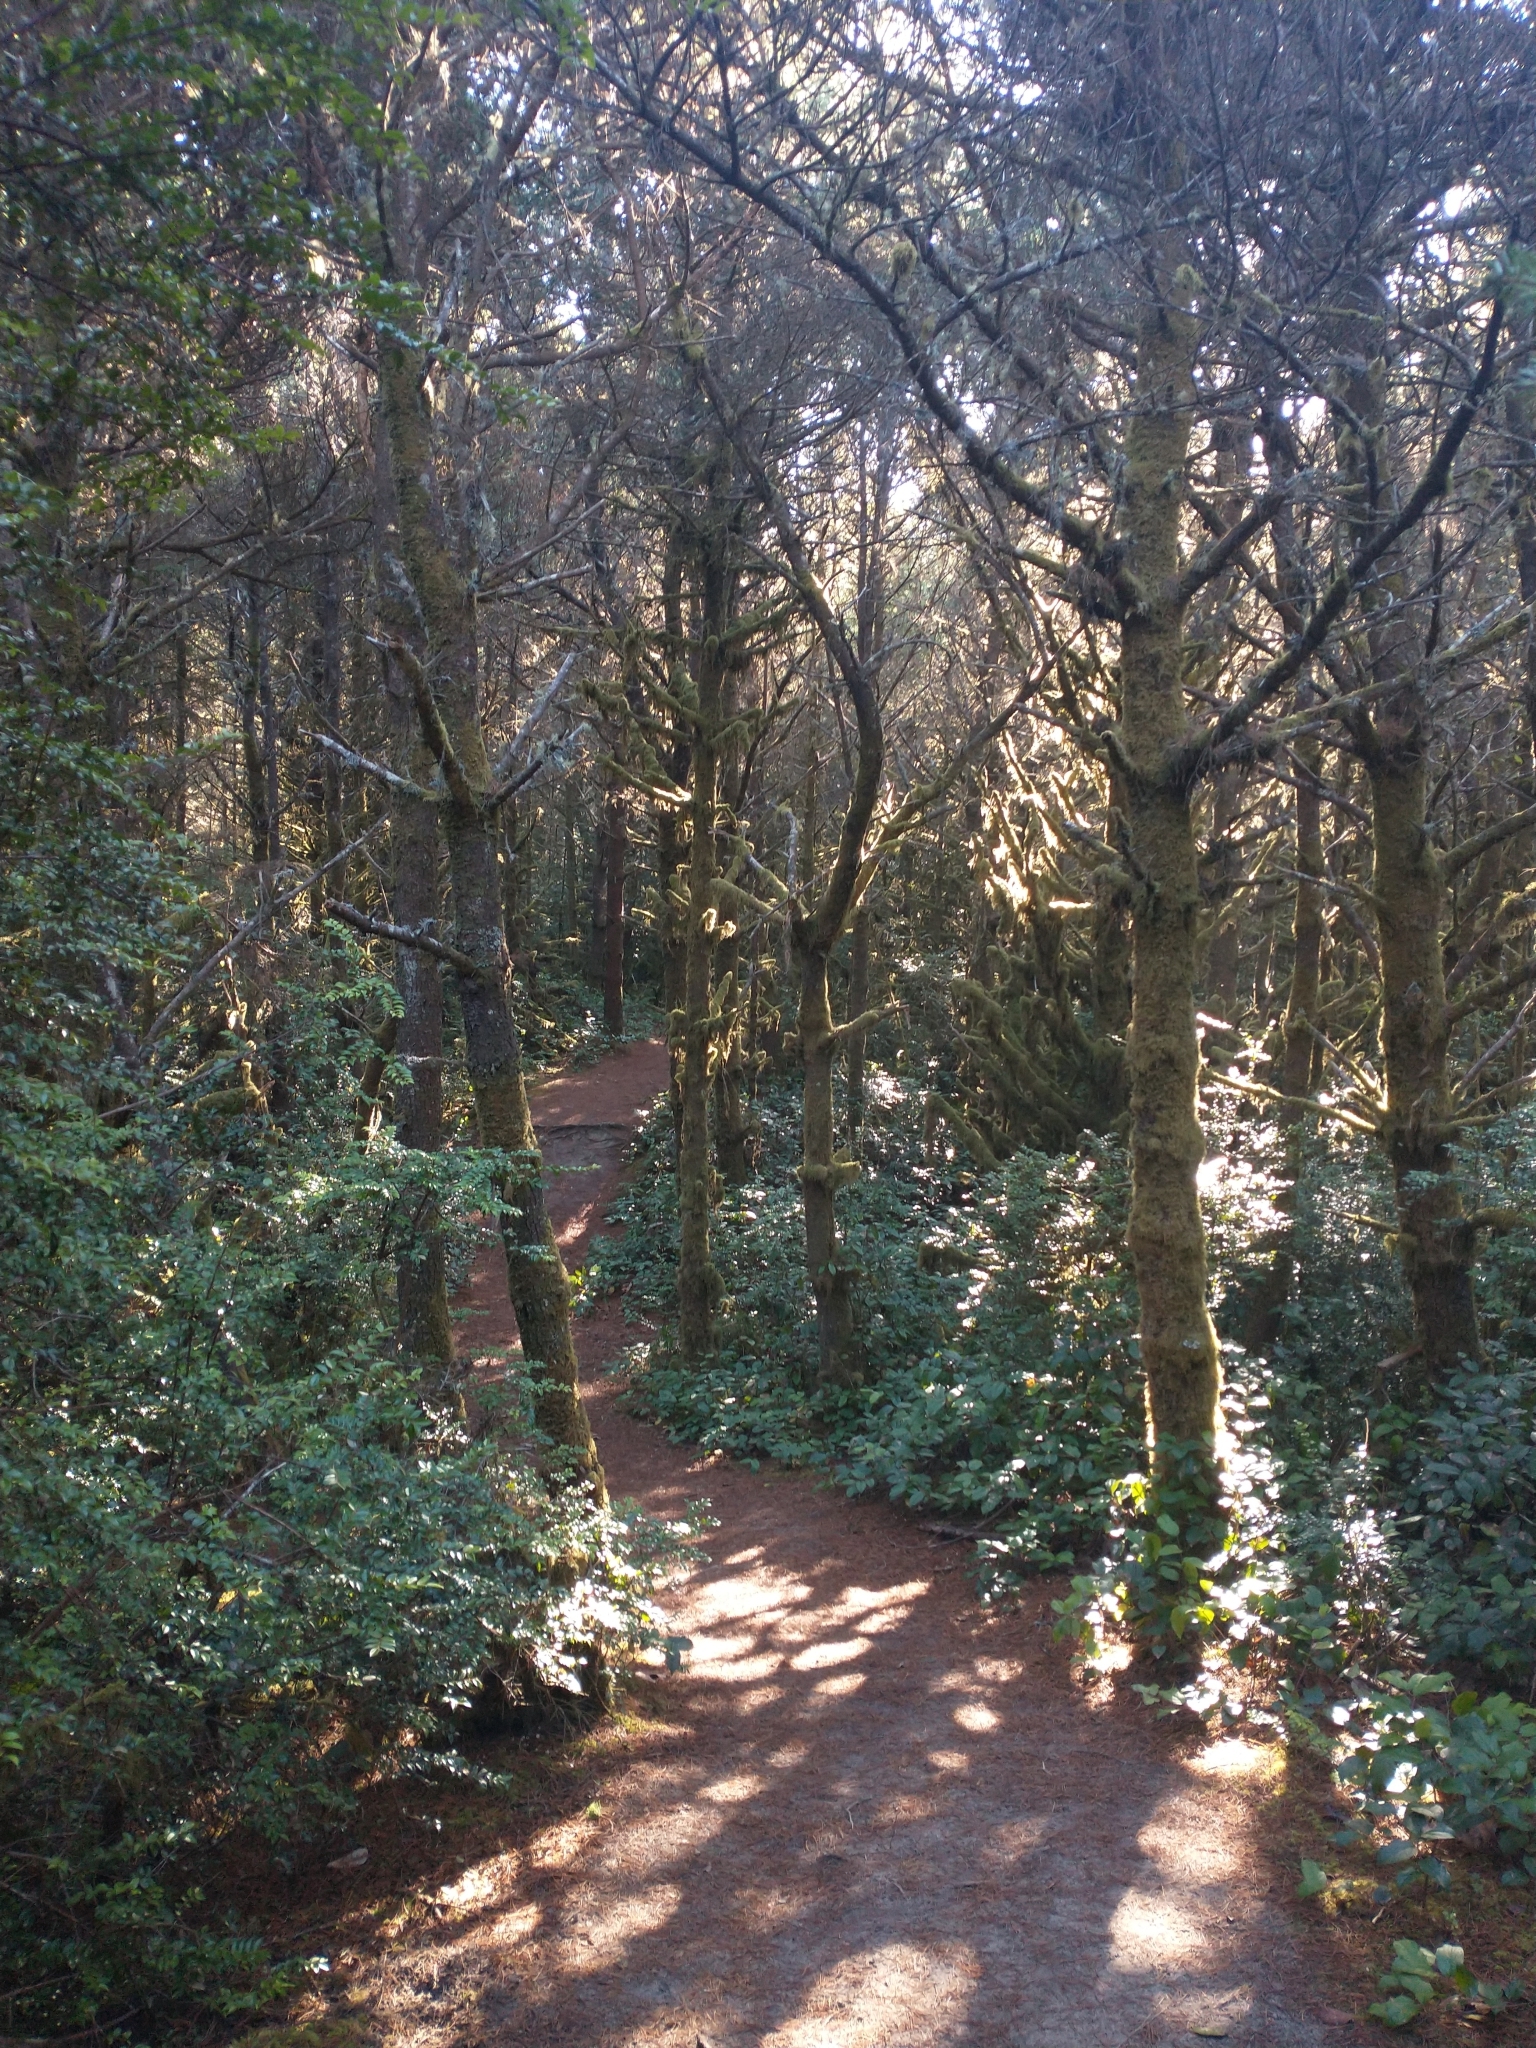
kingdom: Plantae
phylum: Tracheophyta
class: Pinopsida
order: Pinales
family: Pinaceae
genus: Pinus
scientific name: Pinus contorta
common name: Lodgepole pine
